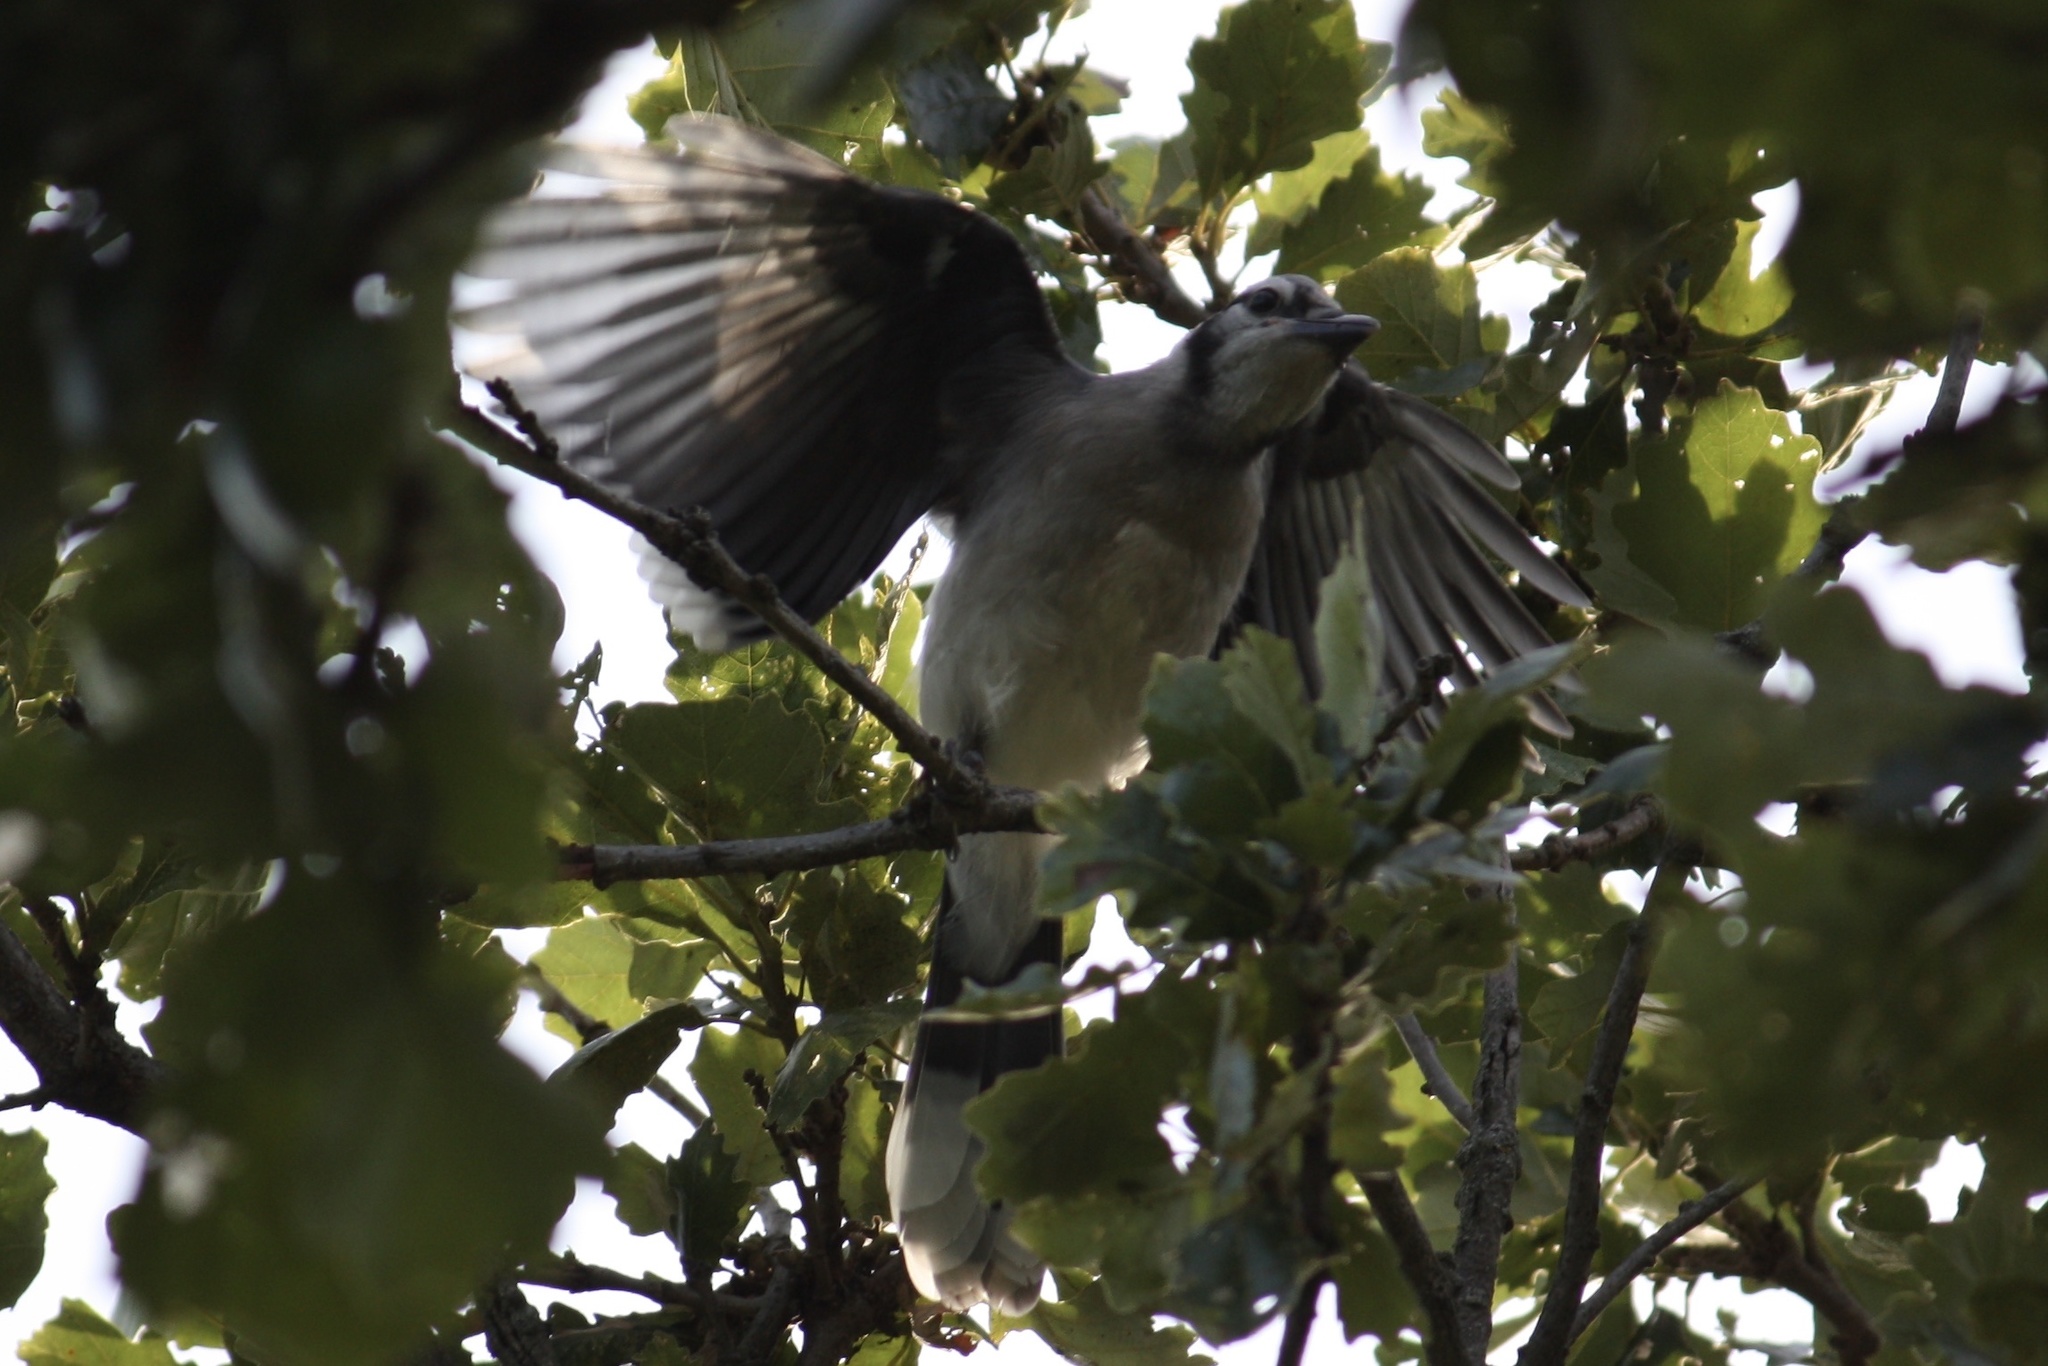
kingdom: Animalia
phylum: Chordata
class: Aves
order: Passeriformes
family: Corvidae
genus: Cyanocitta
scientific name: Cyanocitta cristata
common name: Blue jay
